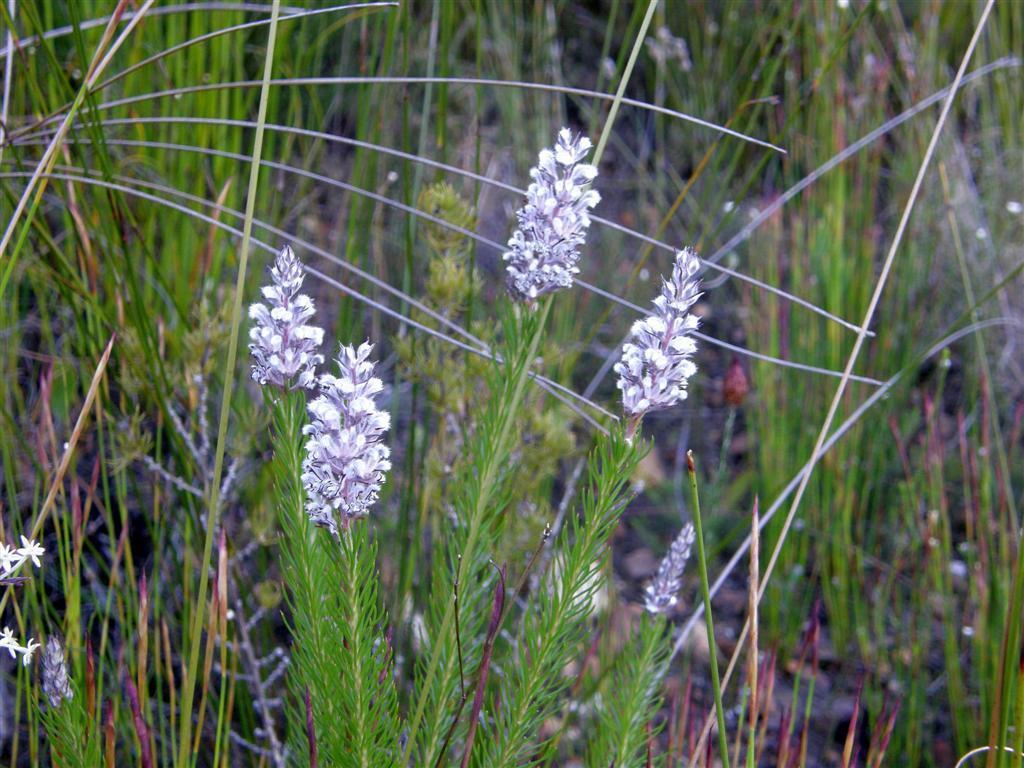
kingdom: Plantae
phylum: Tracheophyta
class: Magnoliopsida
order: Proteales
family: Proteaceae
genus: Spatalla
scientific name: Spatalla propinqua
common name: Lax spoon
